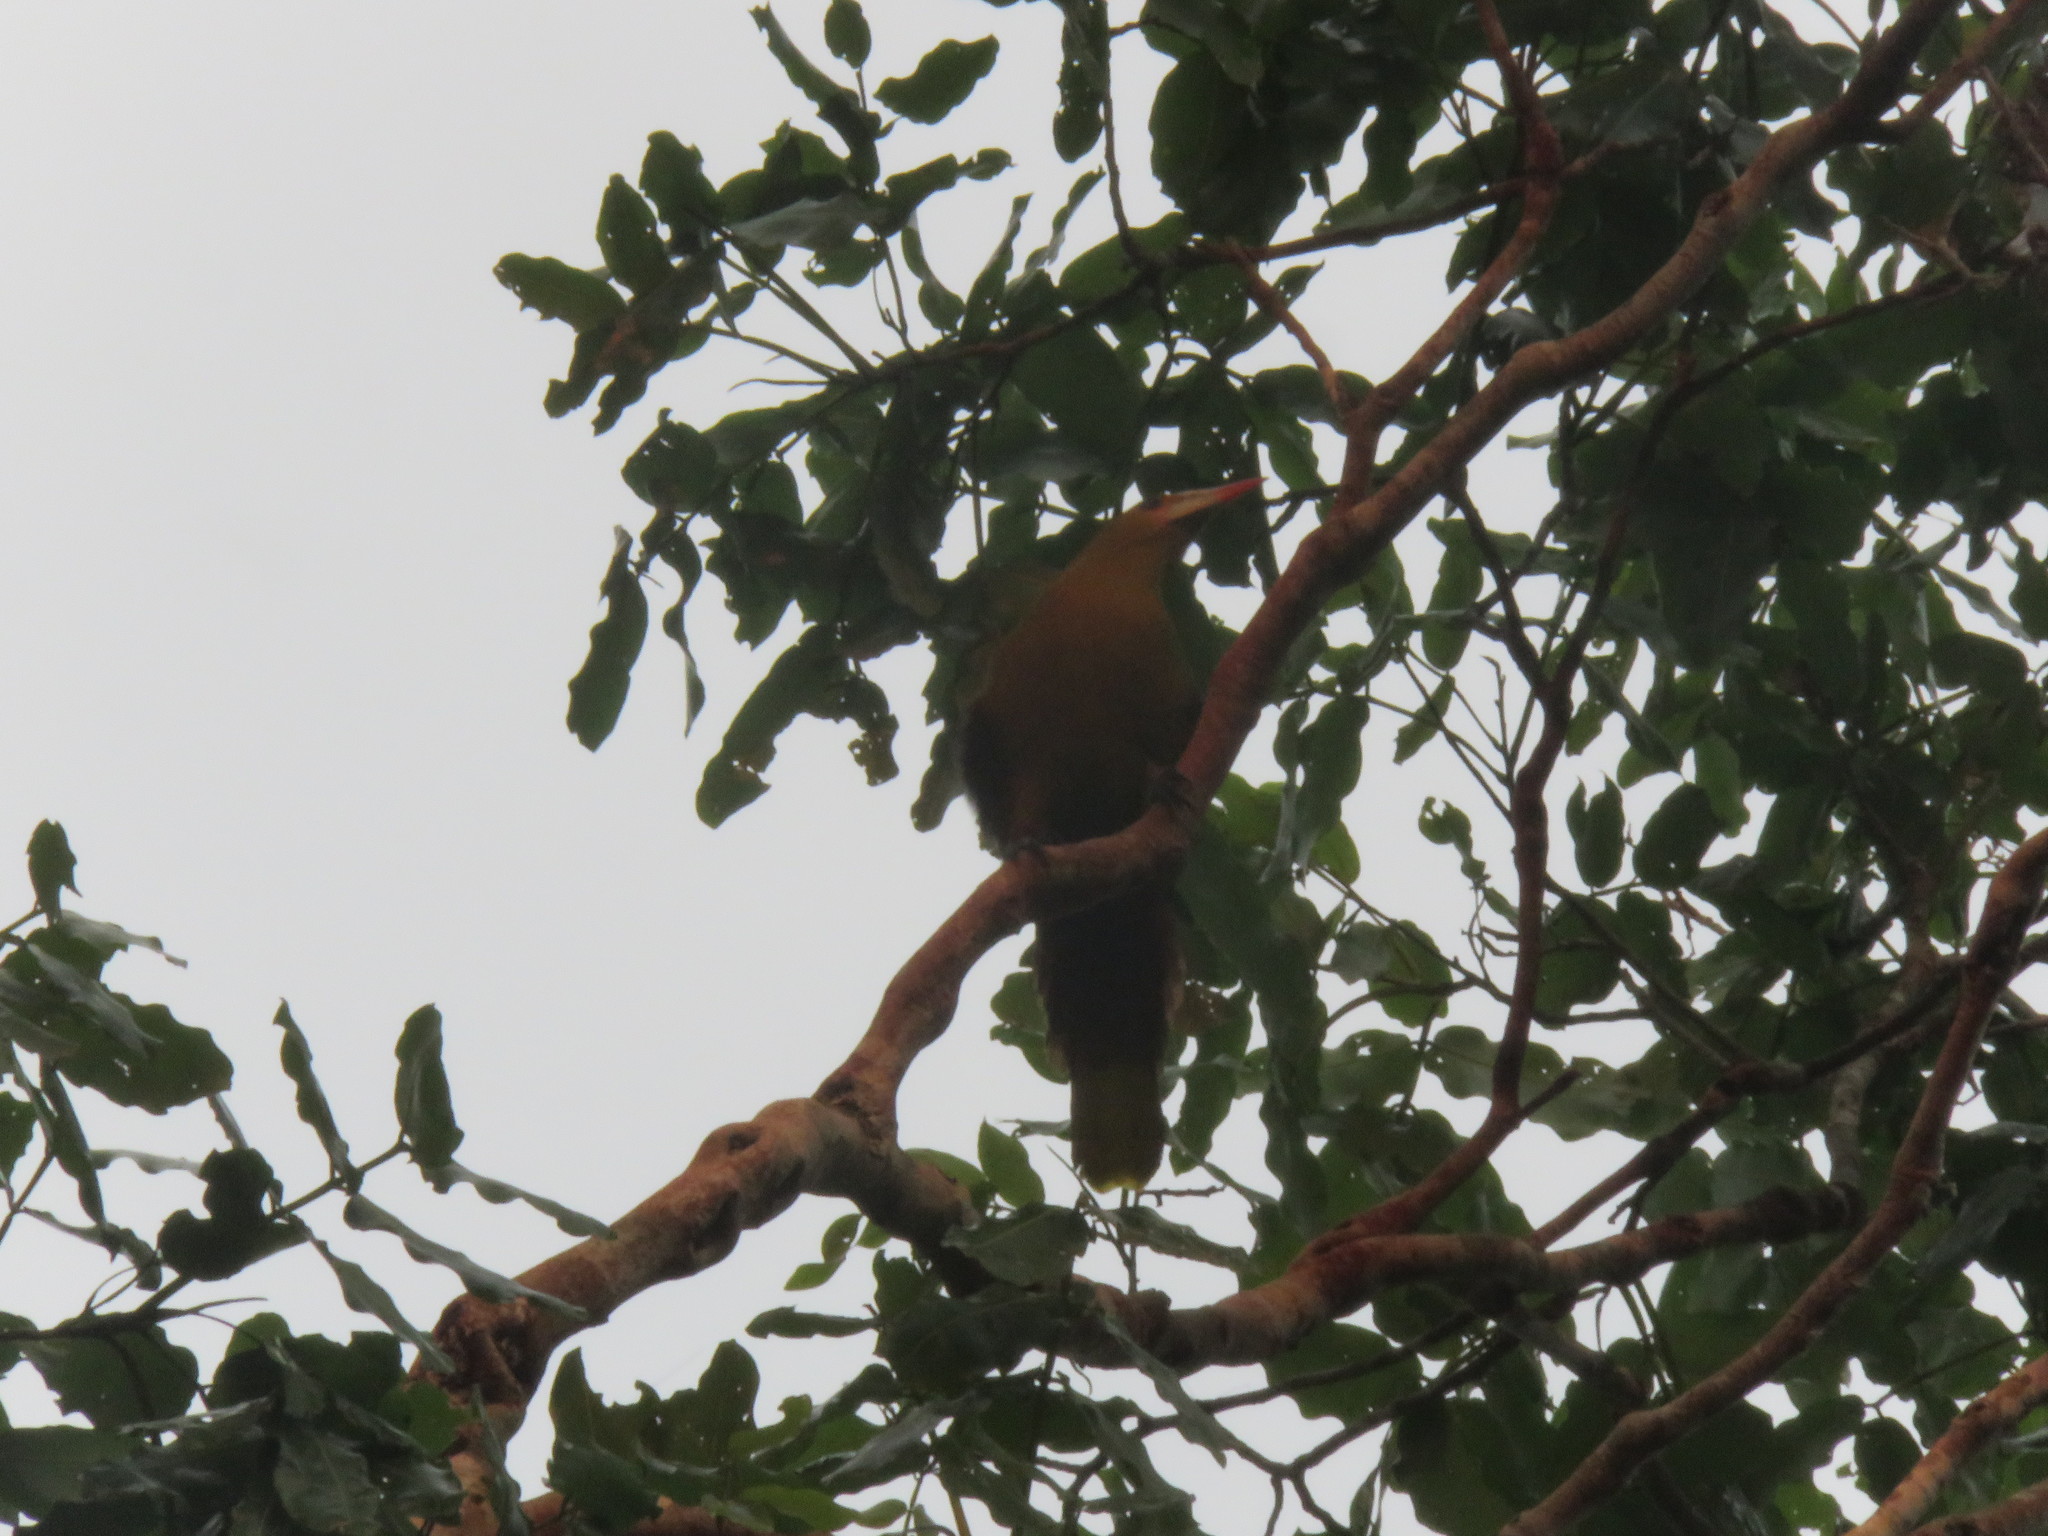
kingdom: Animalia
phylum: Chordata
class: Aves
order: Passeriformes
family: Icteridae
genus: Psarocolius
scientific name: Psarocolius viridis
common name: Green oropendola
